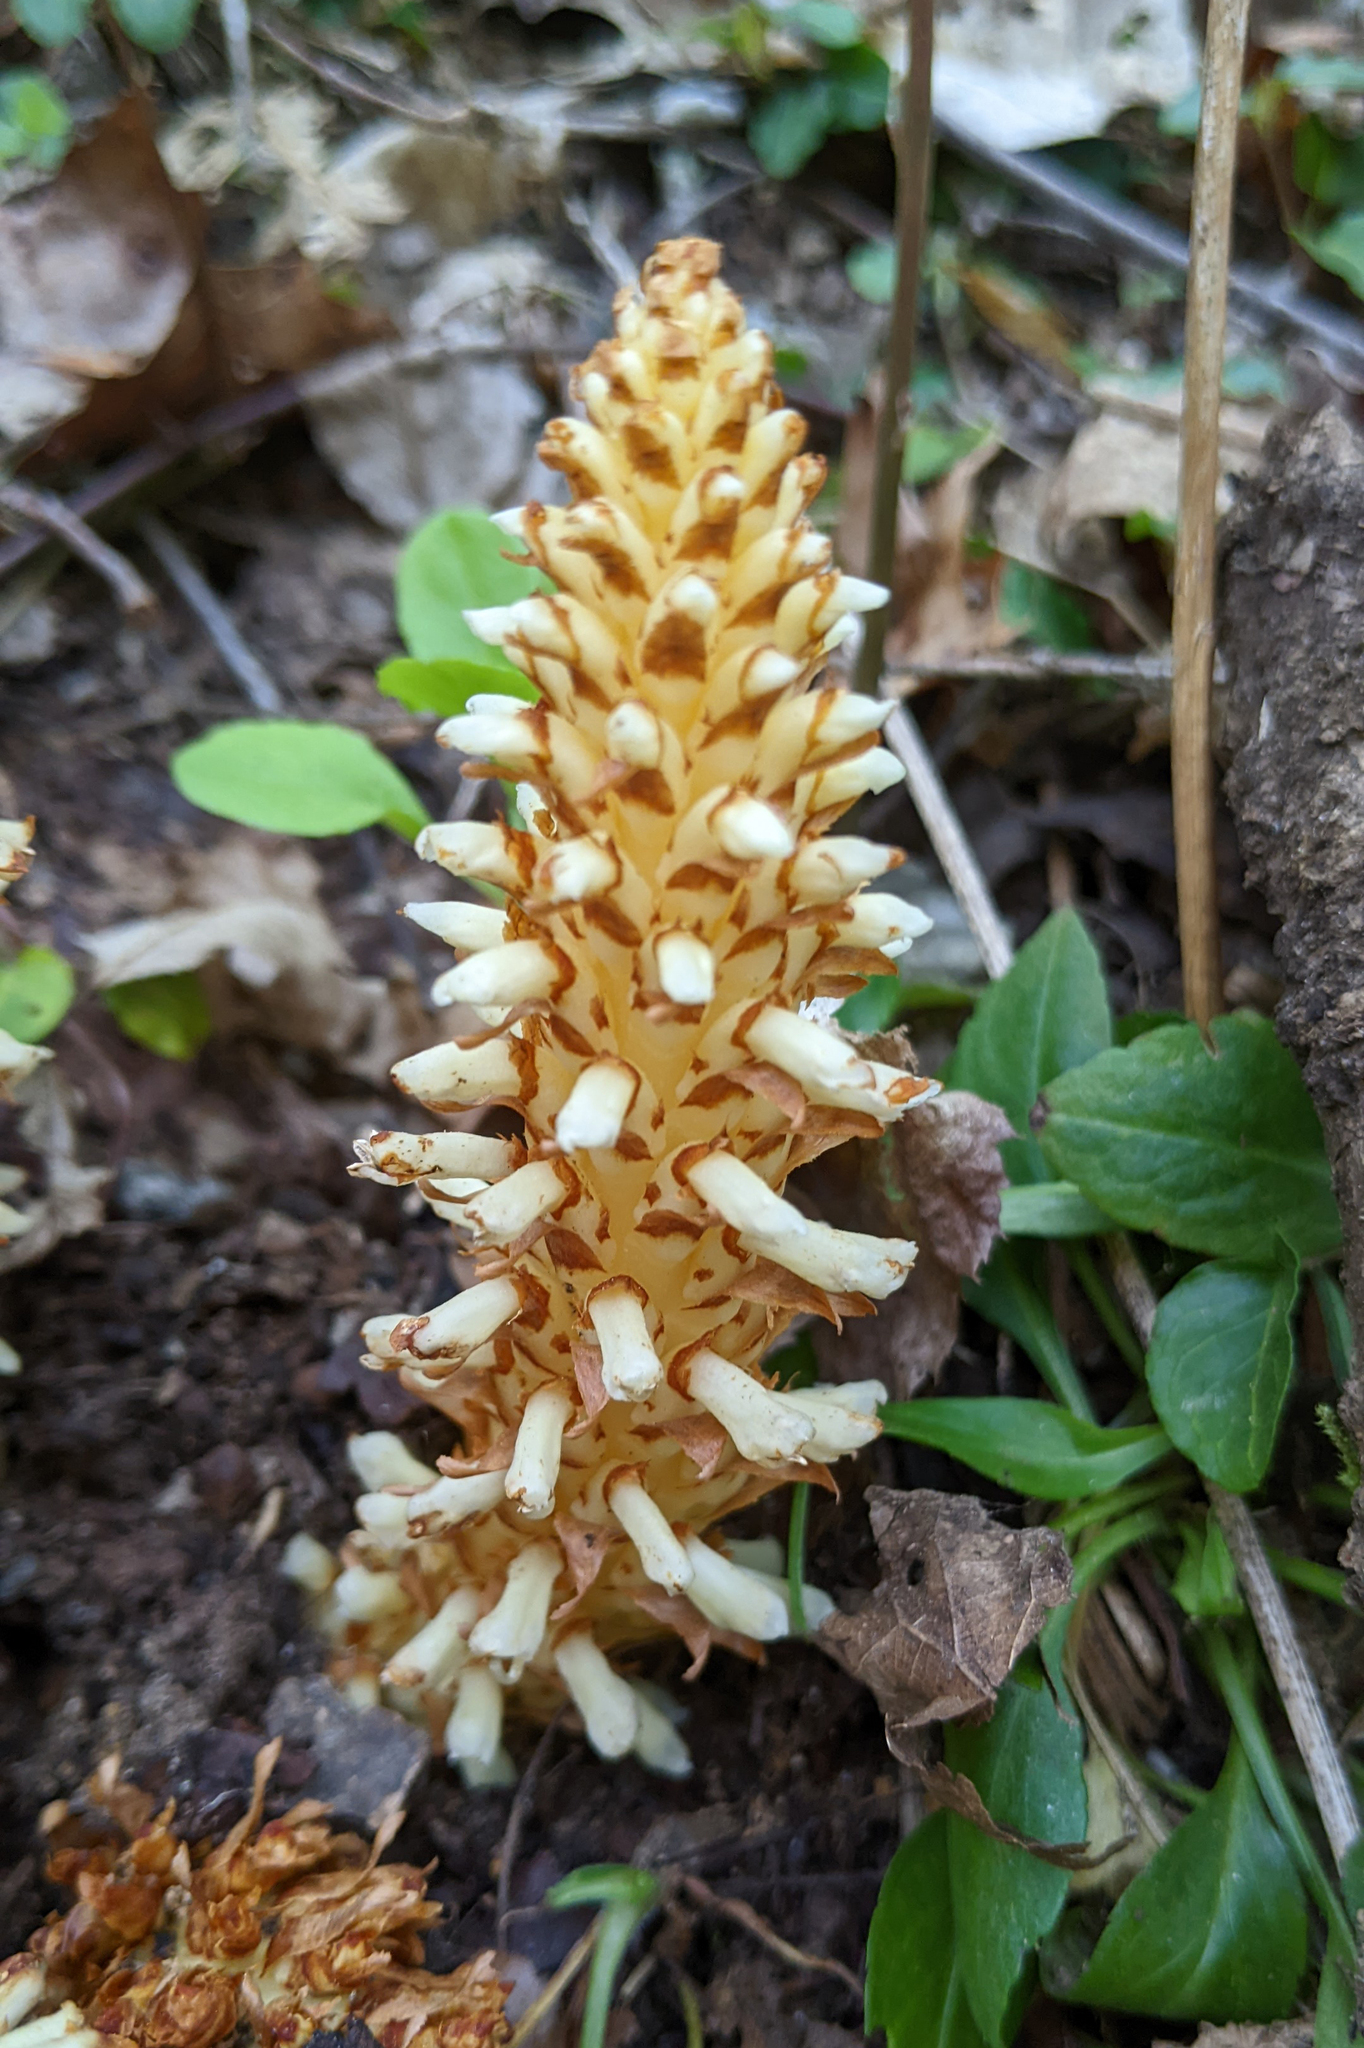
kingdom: Plantae
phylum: Tracheophyta
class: Magnoliopsida
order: Lamiales
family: Orobanchaceae
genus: Conopholis
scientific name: Conopholis americana
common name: American cancer-root
